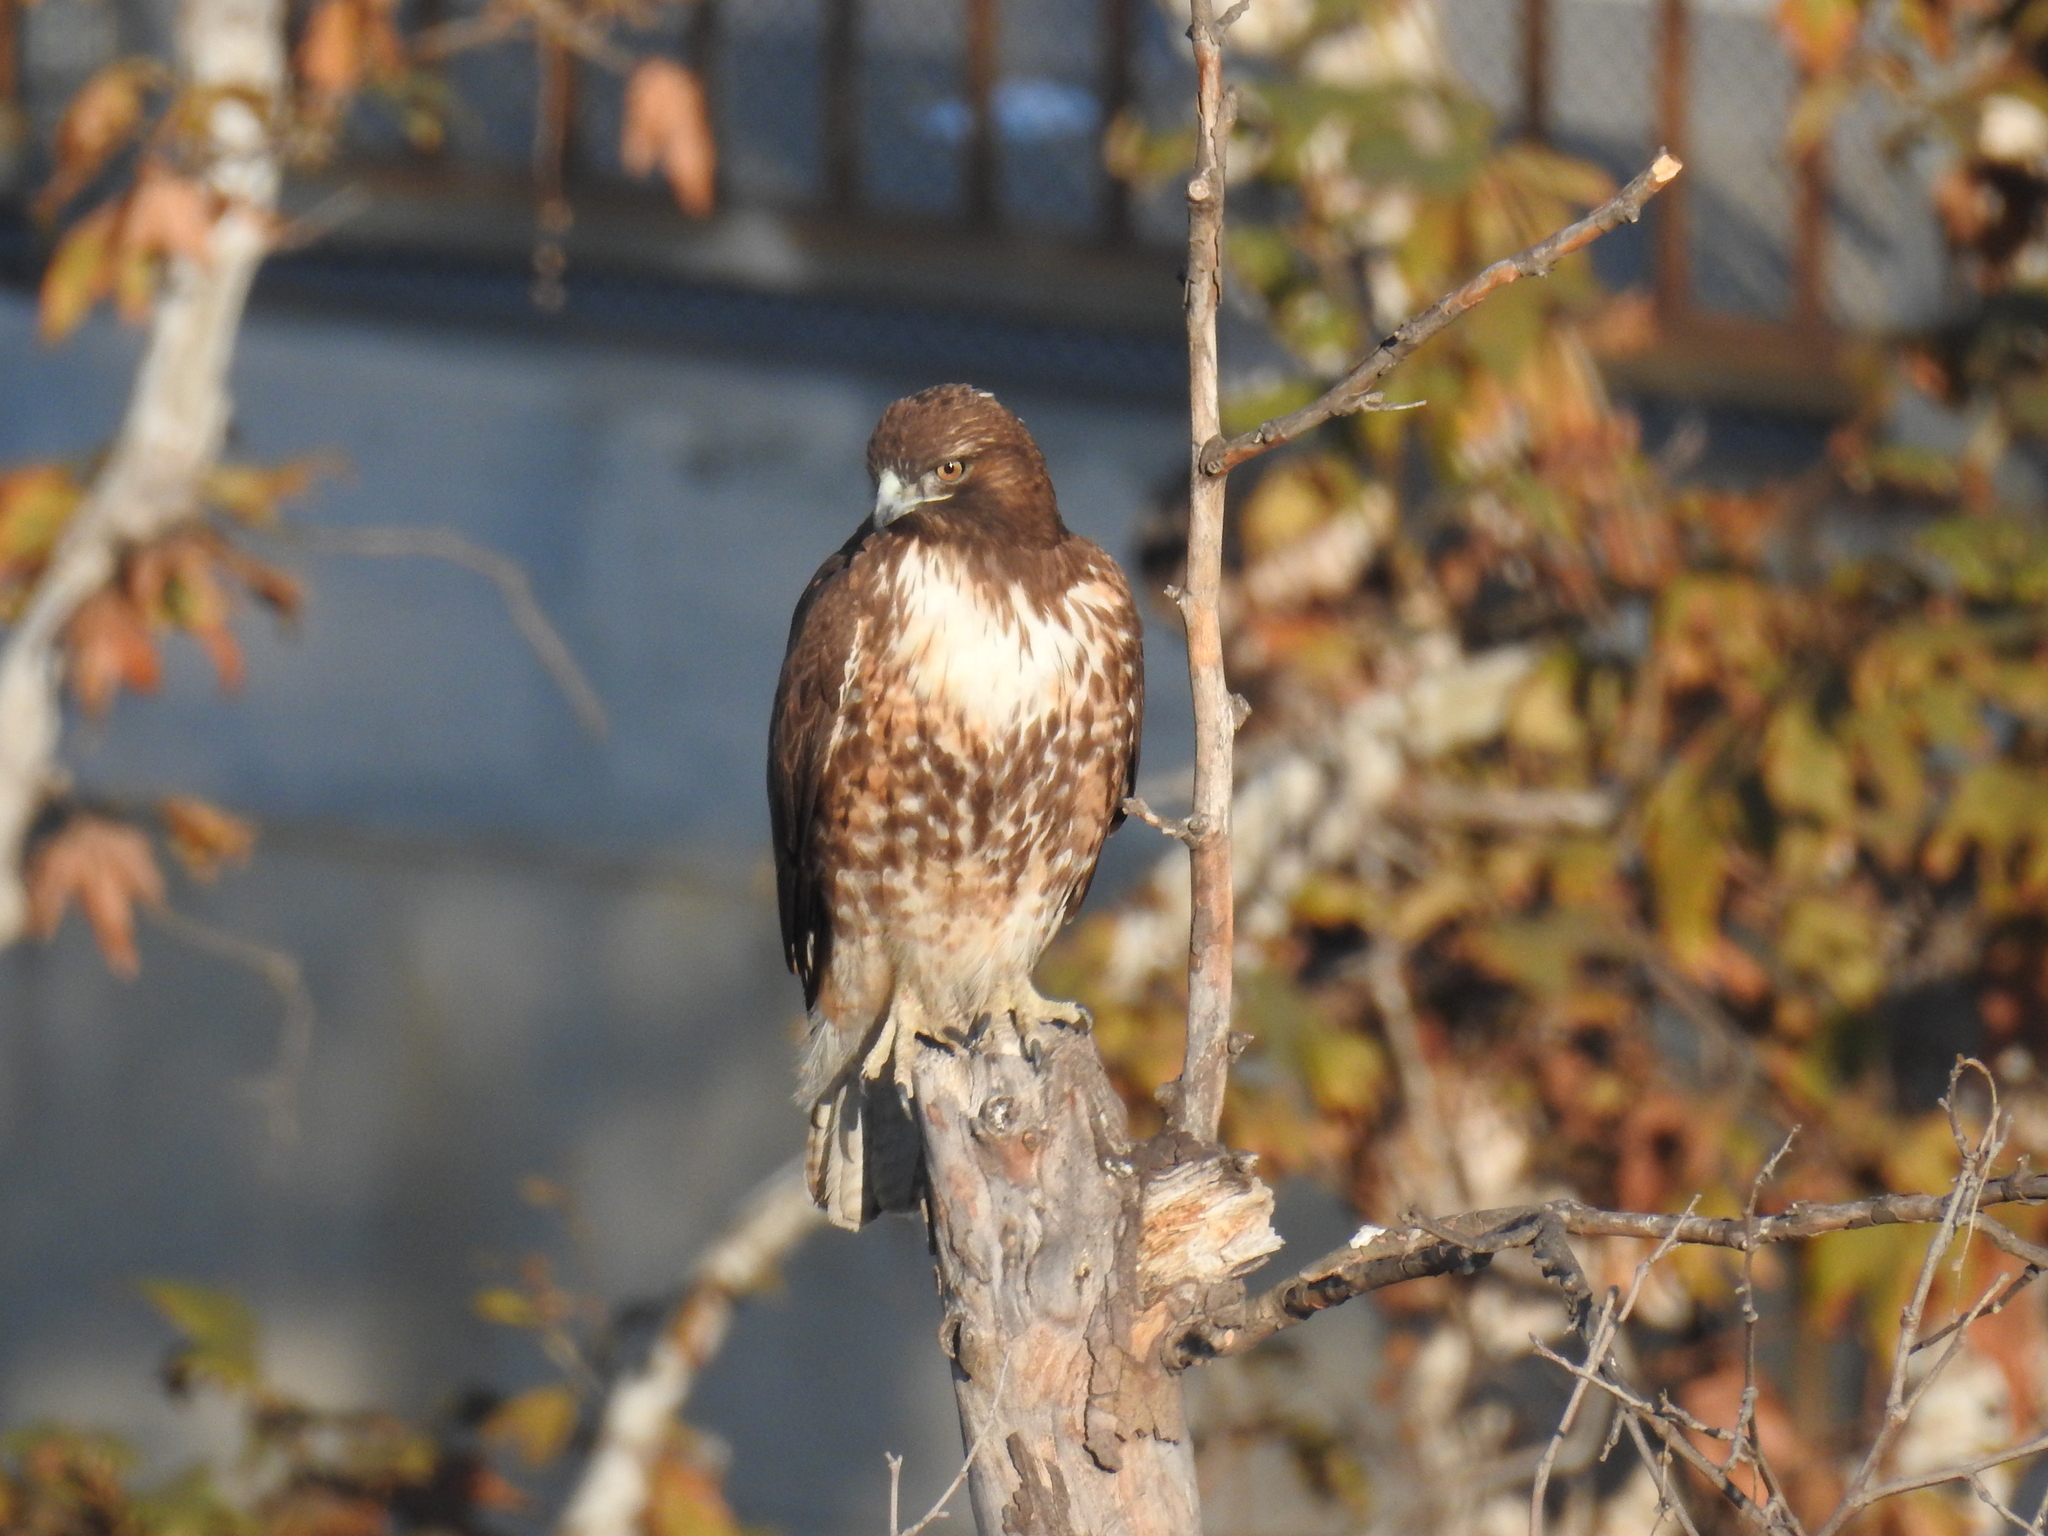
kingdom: Animalia
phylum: Chordata
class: Aves
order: Accipitriformes
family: Accipitridae
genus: Buteo
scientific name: Buteo jamaicensis
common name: Red-tailed hawk
